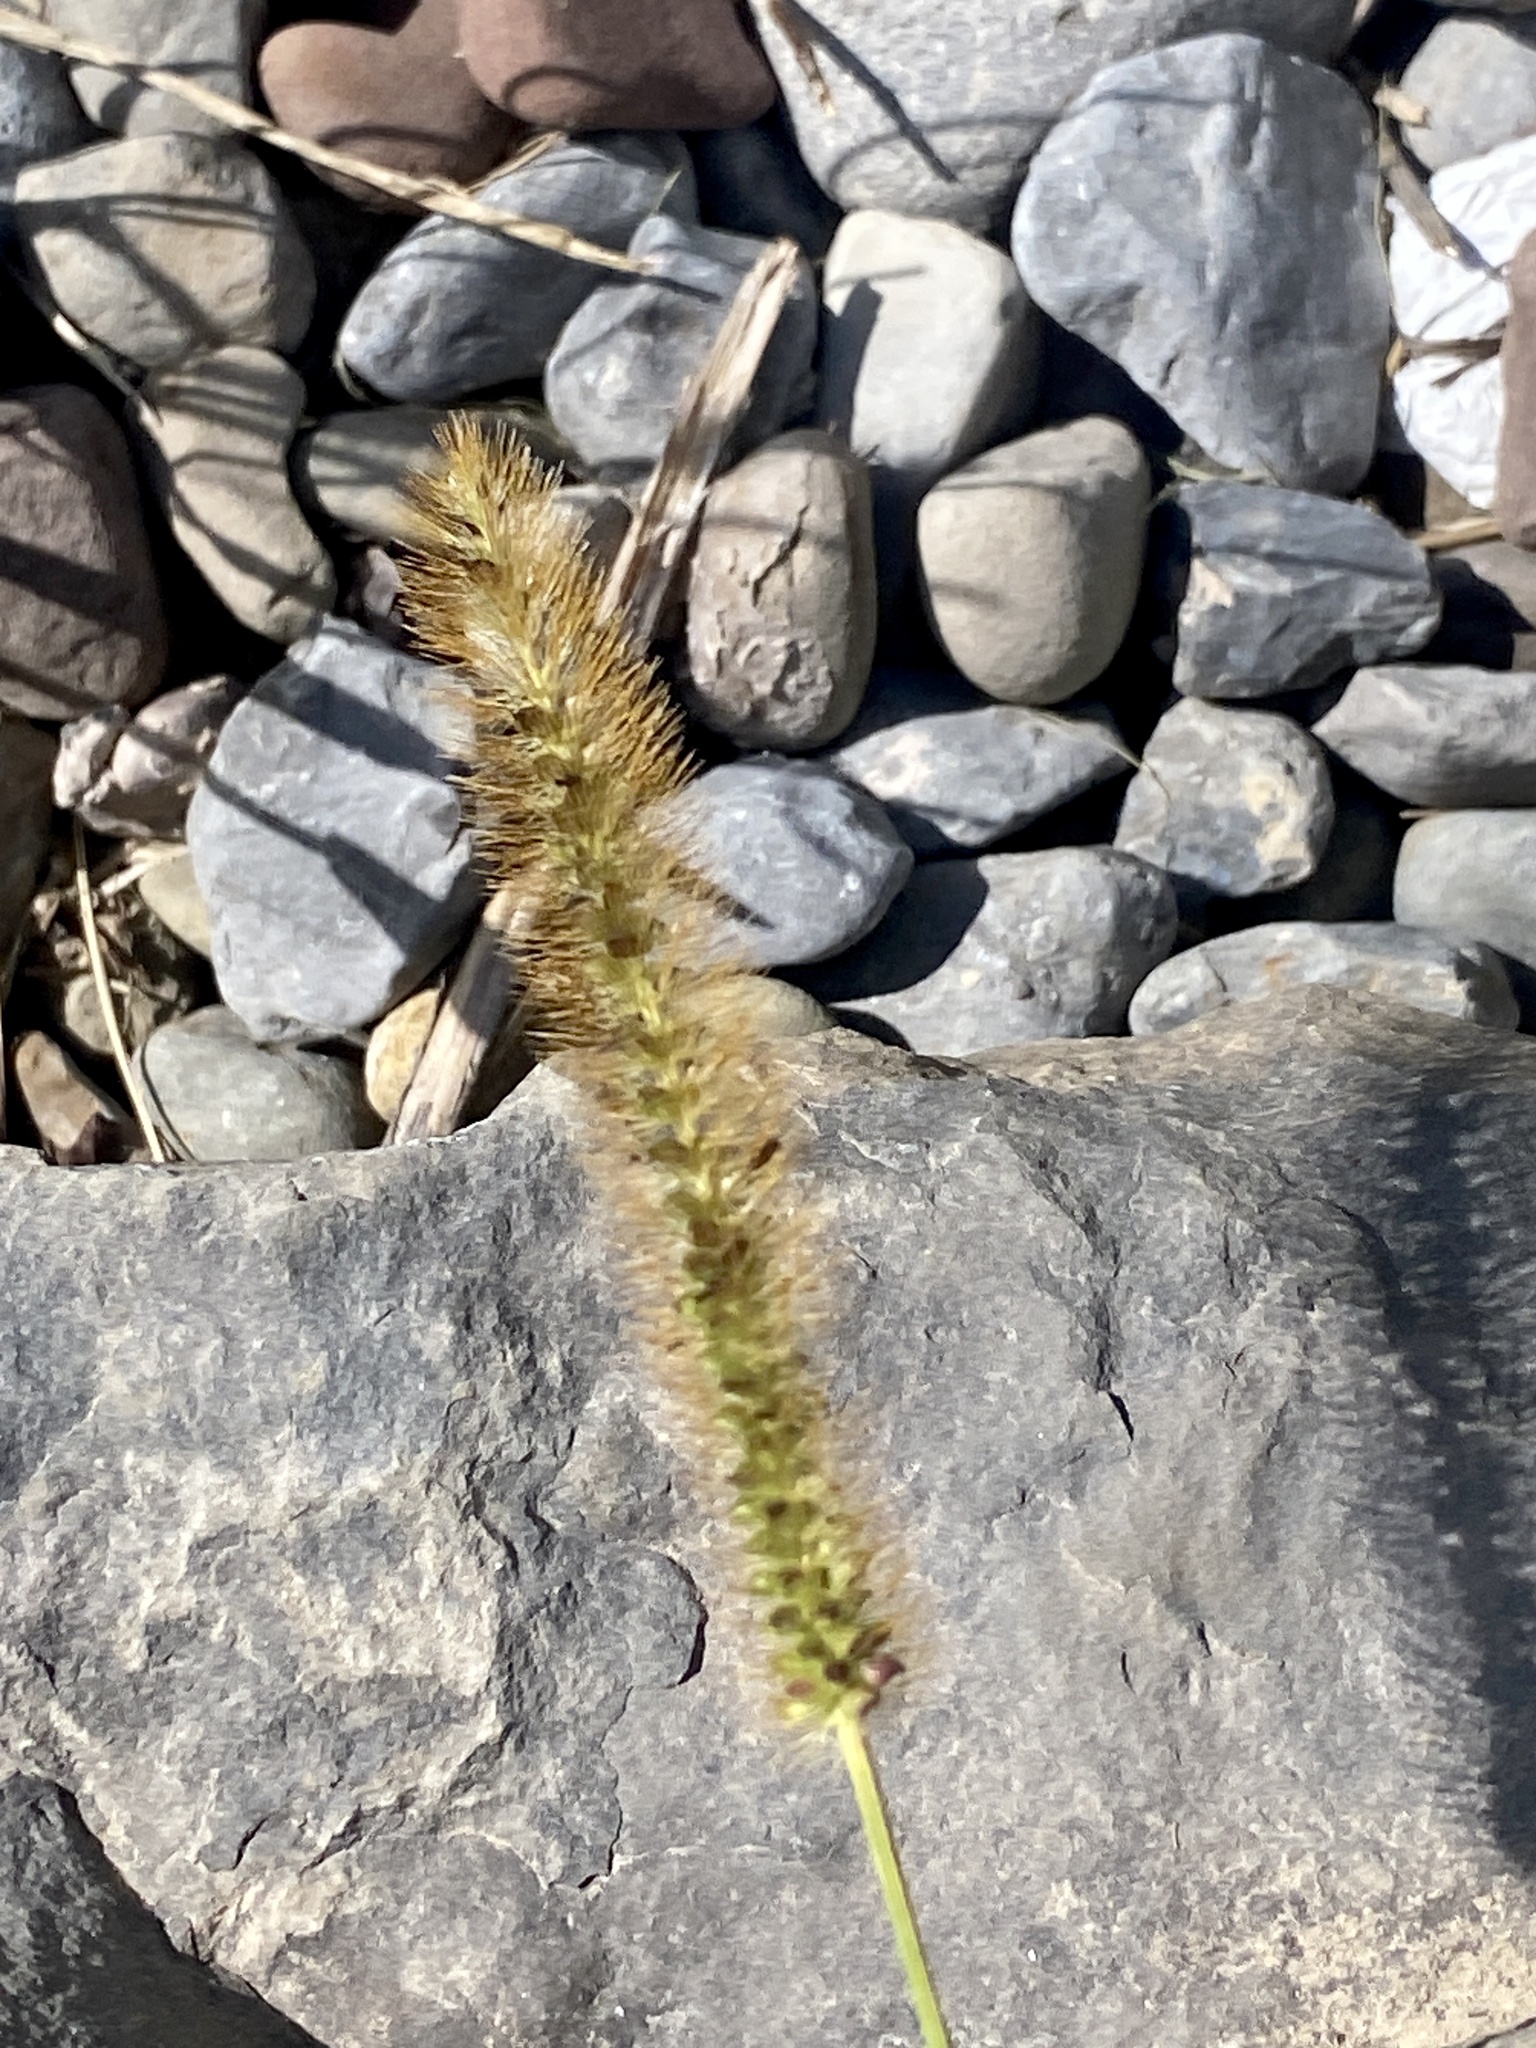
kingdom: Plantae
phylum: Tracheophyta
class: Liliopsida
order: Poales
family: Poaceae
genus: Setaria
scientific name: Setaria pumila
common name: Yellow bristle-grass
